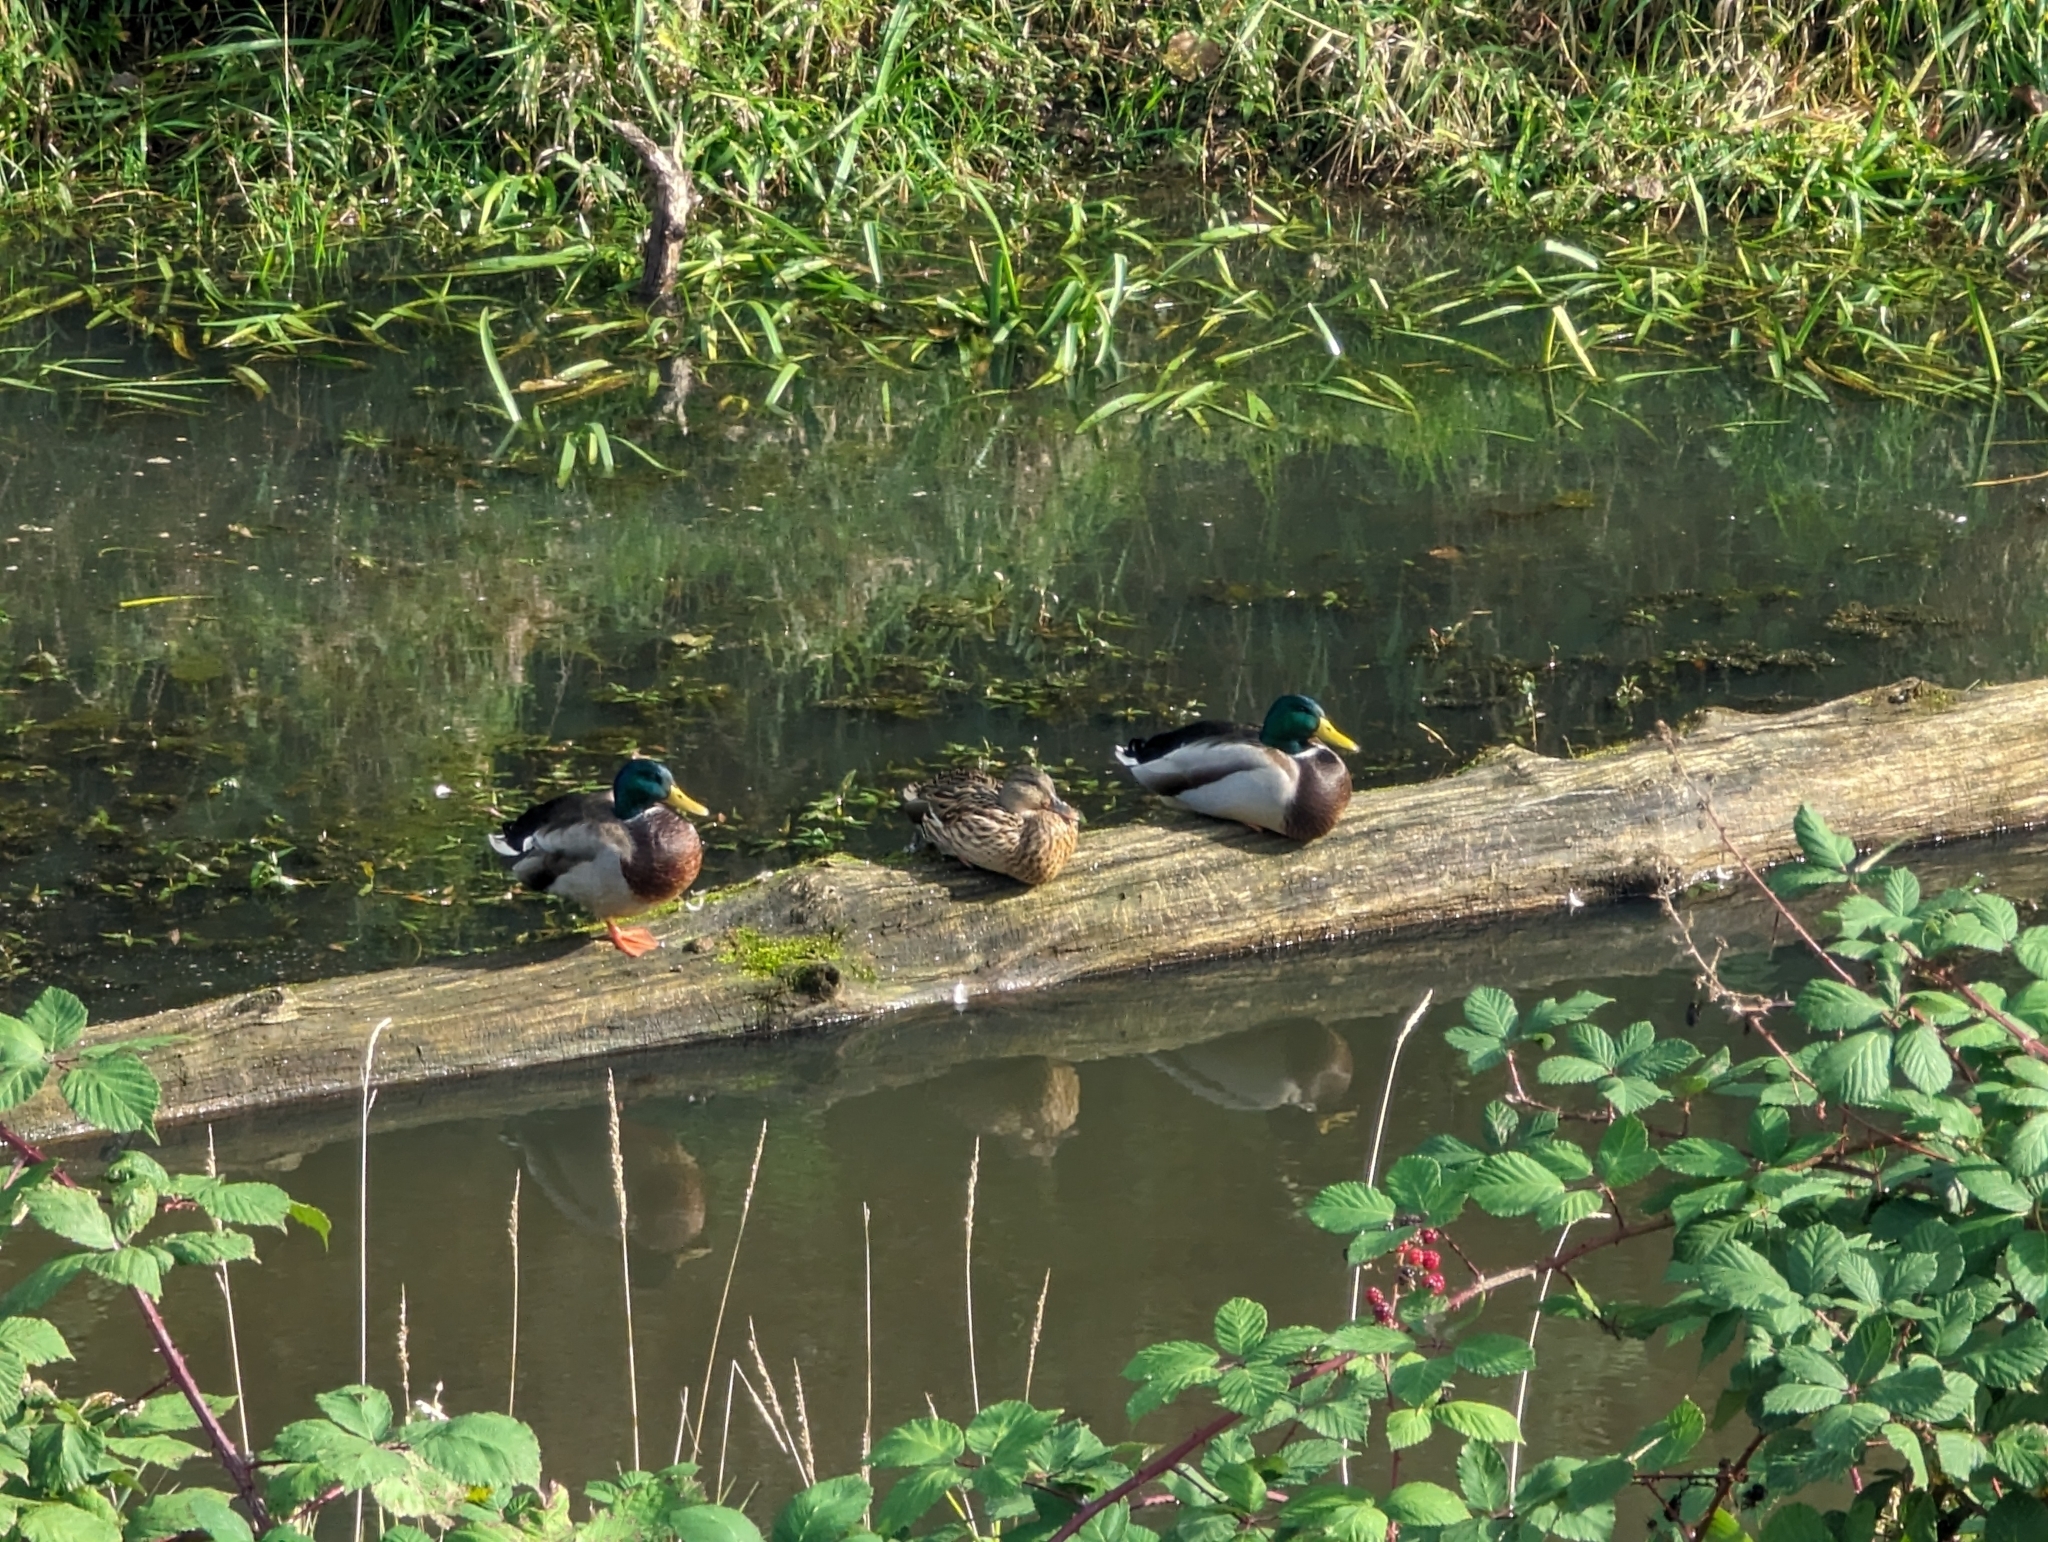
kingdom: Animalia
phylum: Chordata
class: Aves
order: Anseriformes
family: Anatidae
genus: Anas
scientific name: Anas platyrhynchos
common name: Mallard
